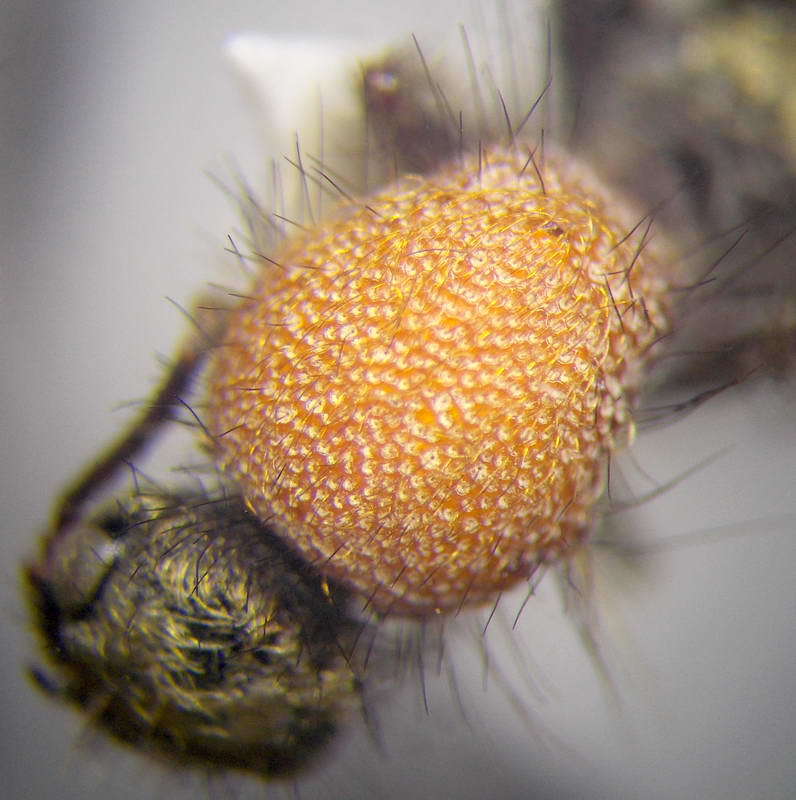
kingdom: Animalia
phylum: Arthropoda
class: Insecta
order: Hymenoptera
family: Mutillidae
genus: Dasylabris
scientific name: Dasylabris maura
